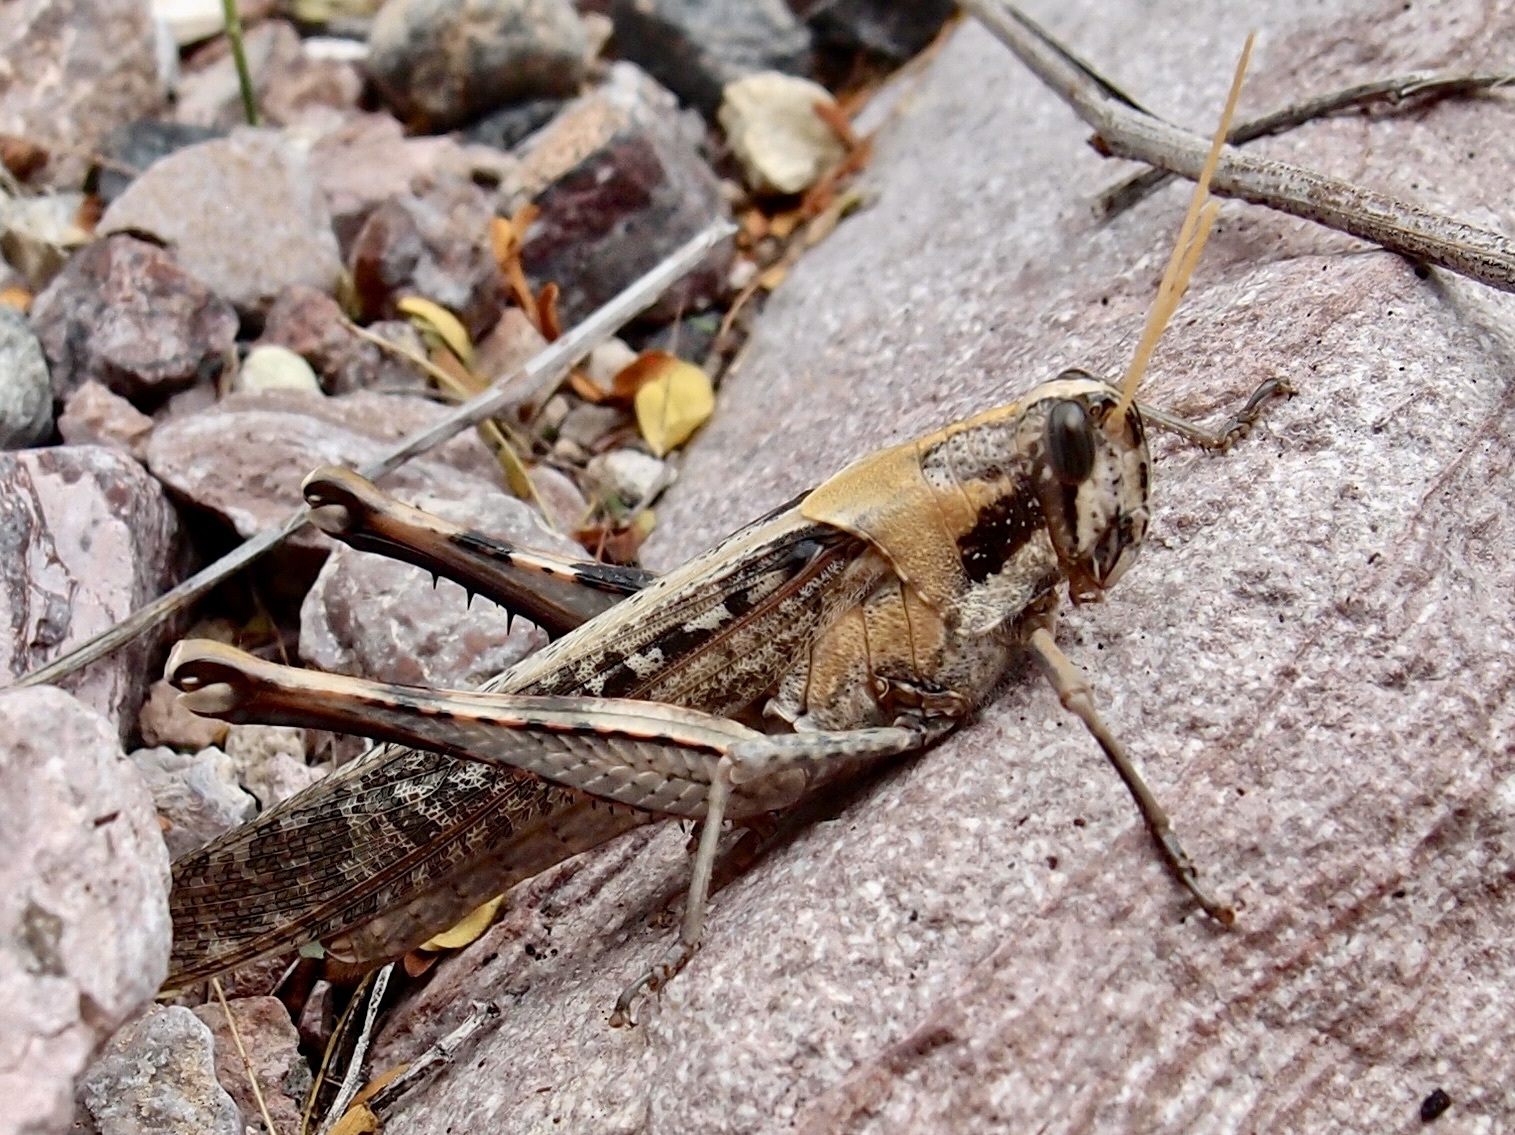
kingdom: Animalia
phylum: Arthropoda
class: Insecta
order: Orthoptera
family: Acrididae
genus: Schistocerca
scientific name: Schistocerca nitens
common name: Vagrant grasshopper
